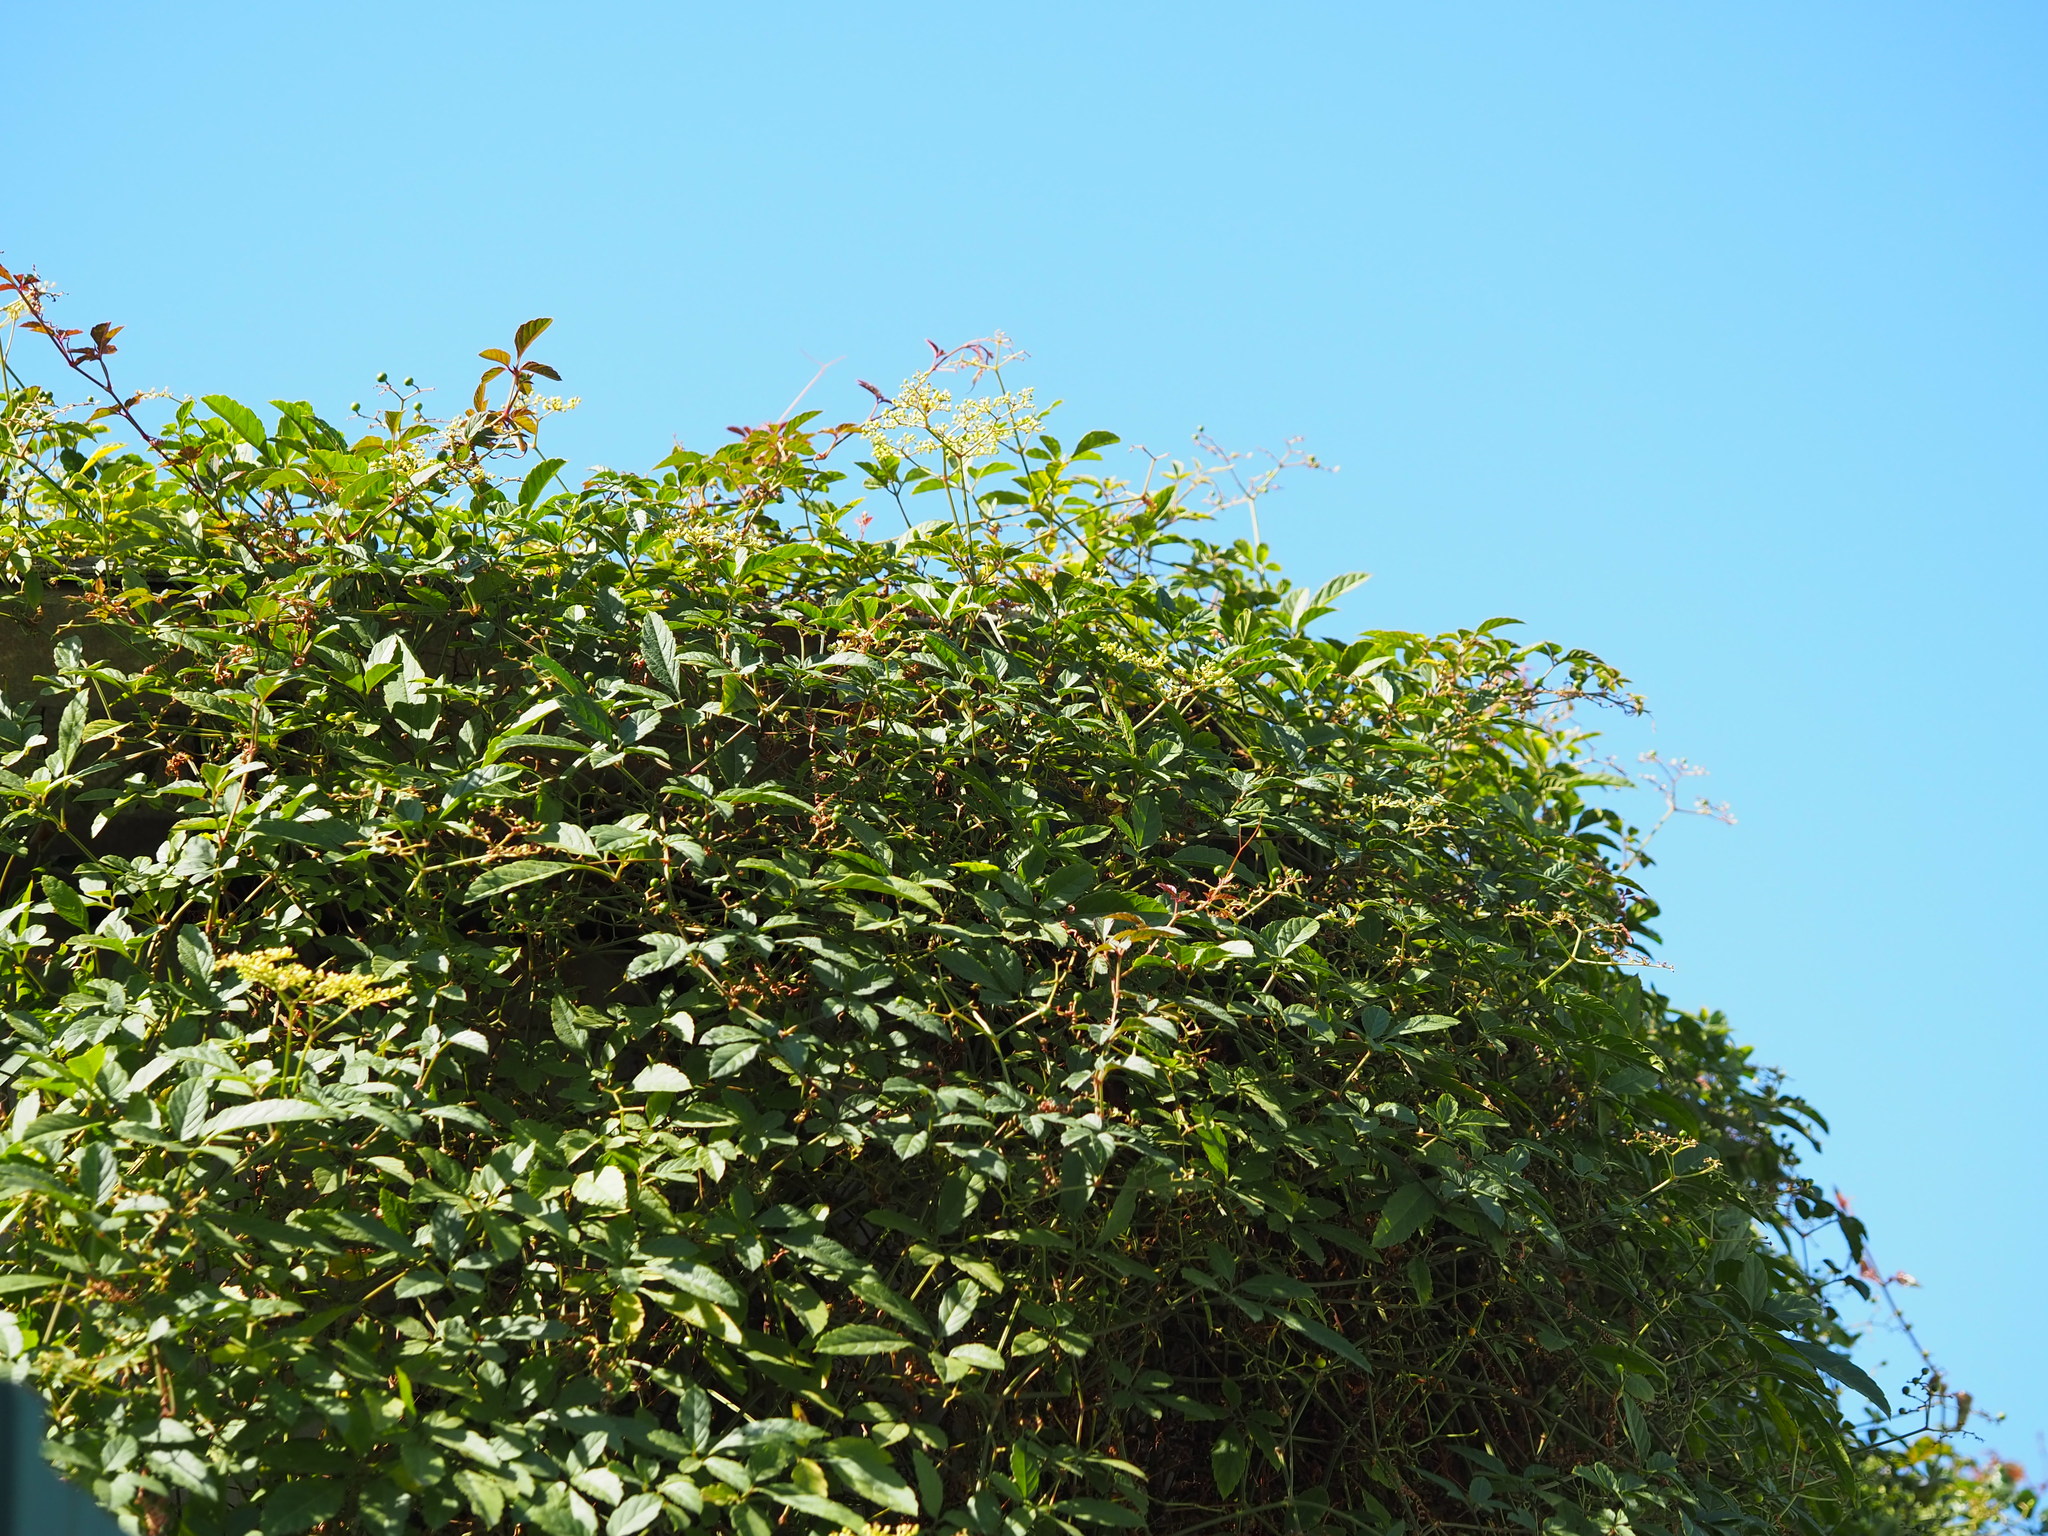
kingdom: Plantae
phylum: Tracheophyta
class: Magnoliopsida
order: Vitales
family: Vitaceae
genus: Causonis
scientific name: Causonis japonica
